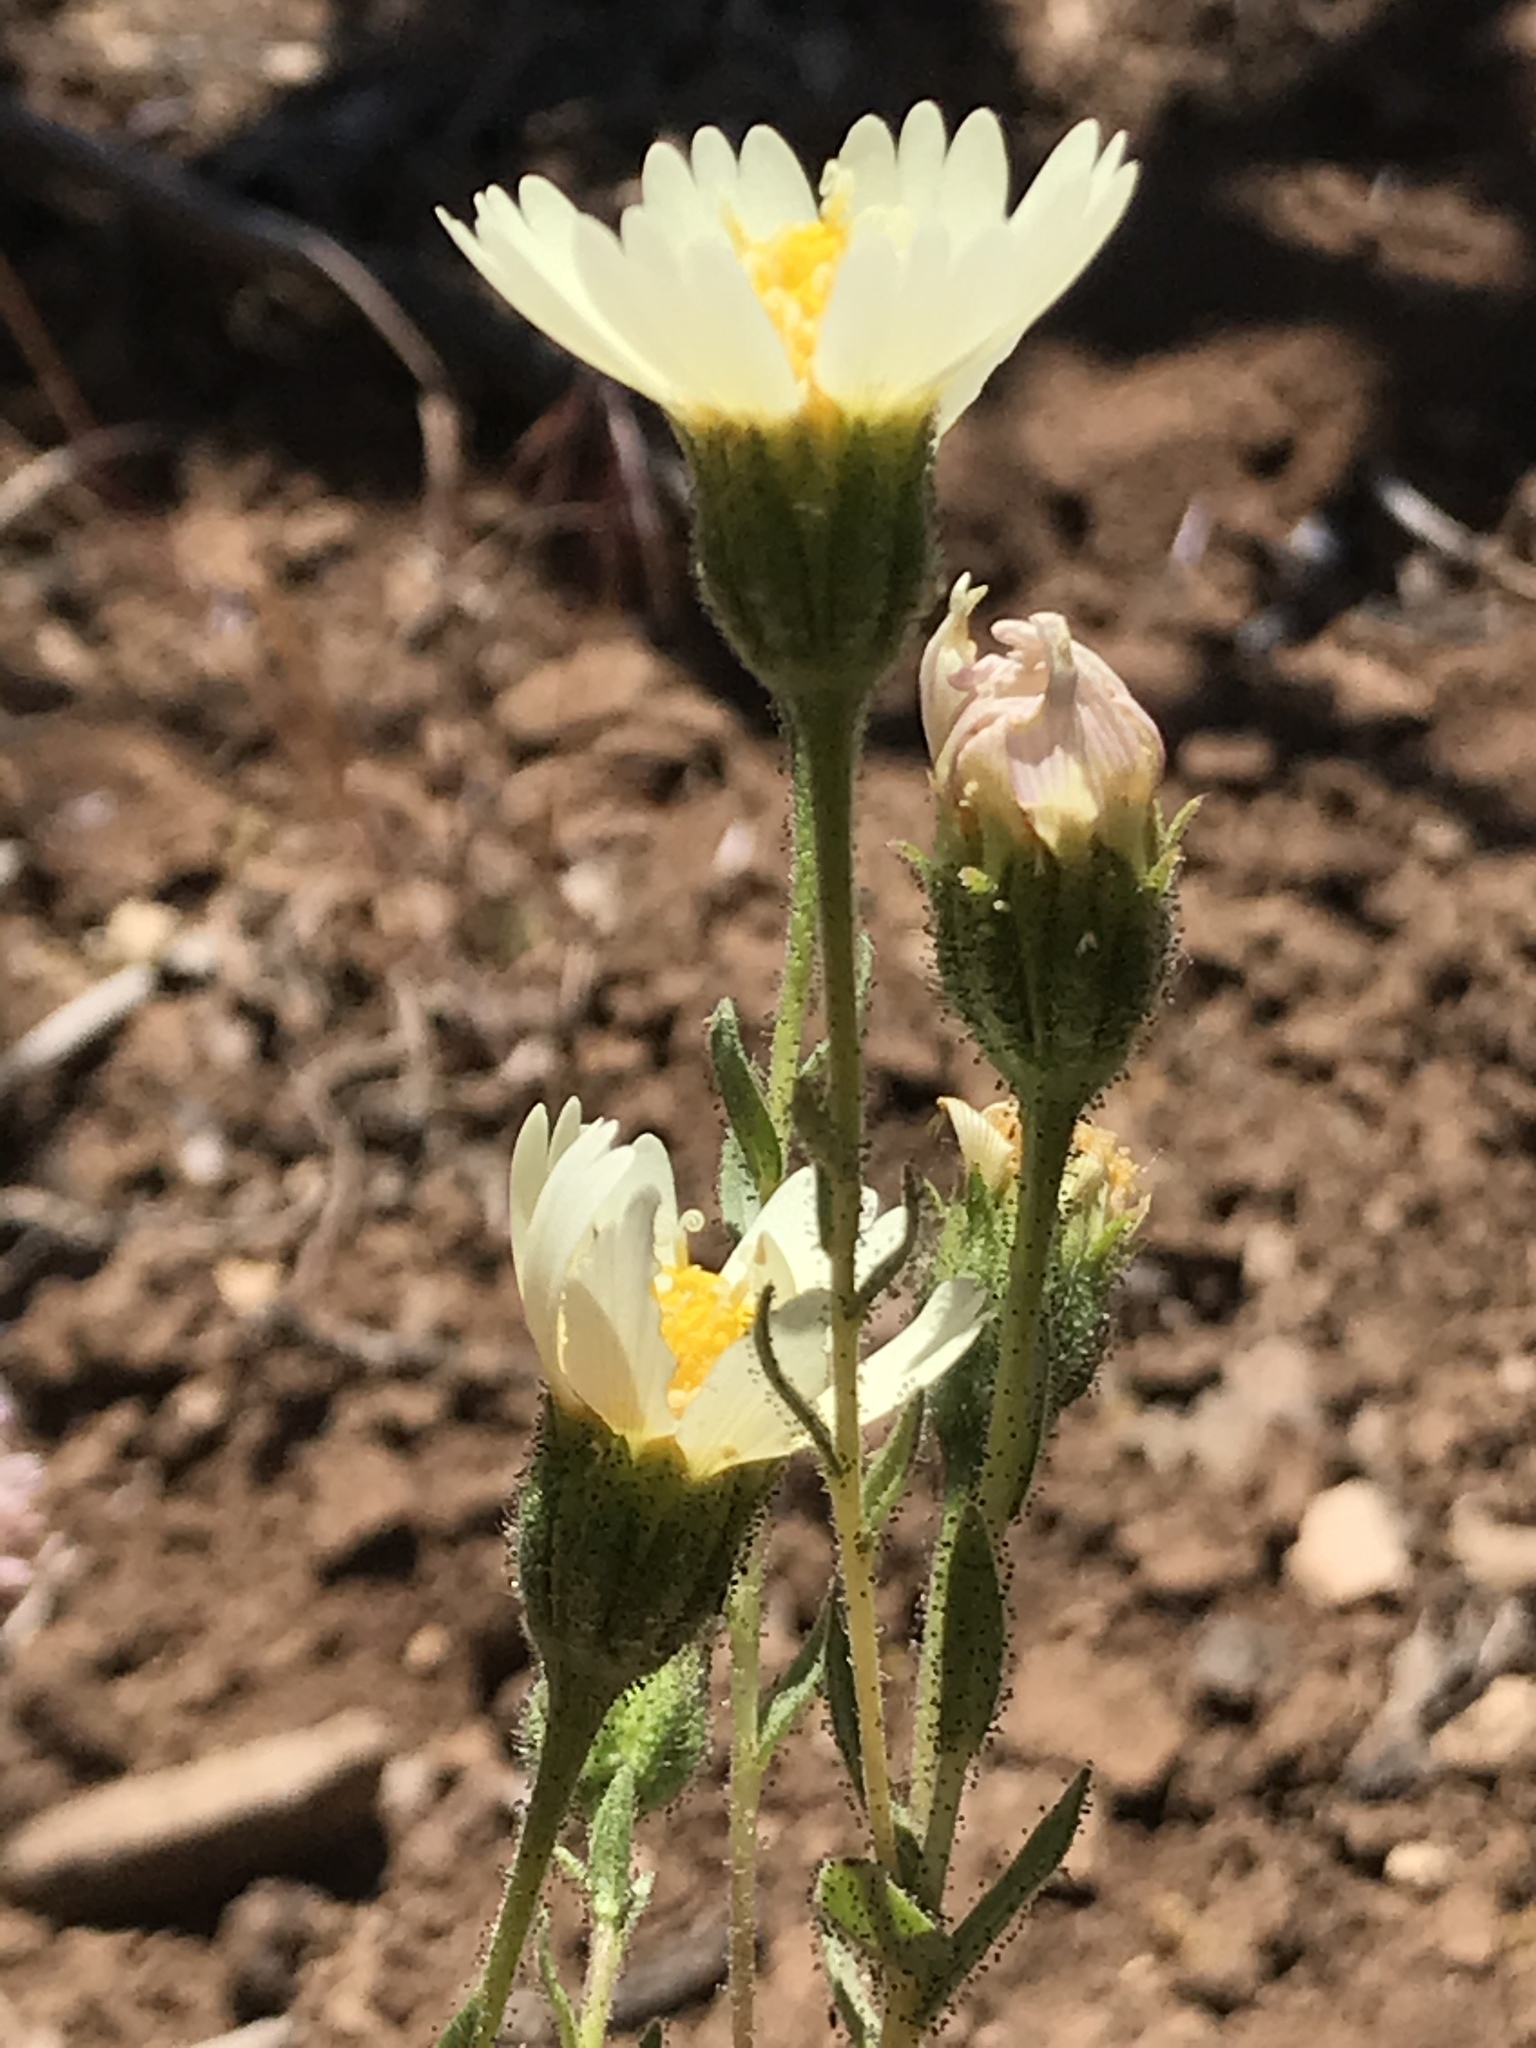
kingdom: Plantae
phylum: Tracheophyta
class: Magnoliopsida
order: Asterales
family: Asteraceae
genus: Layia
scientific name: Layia heterotricha
